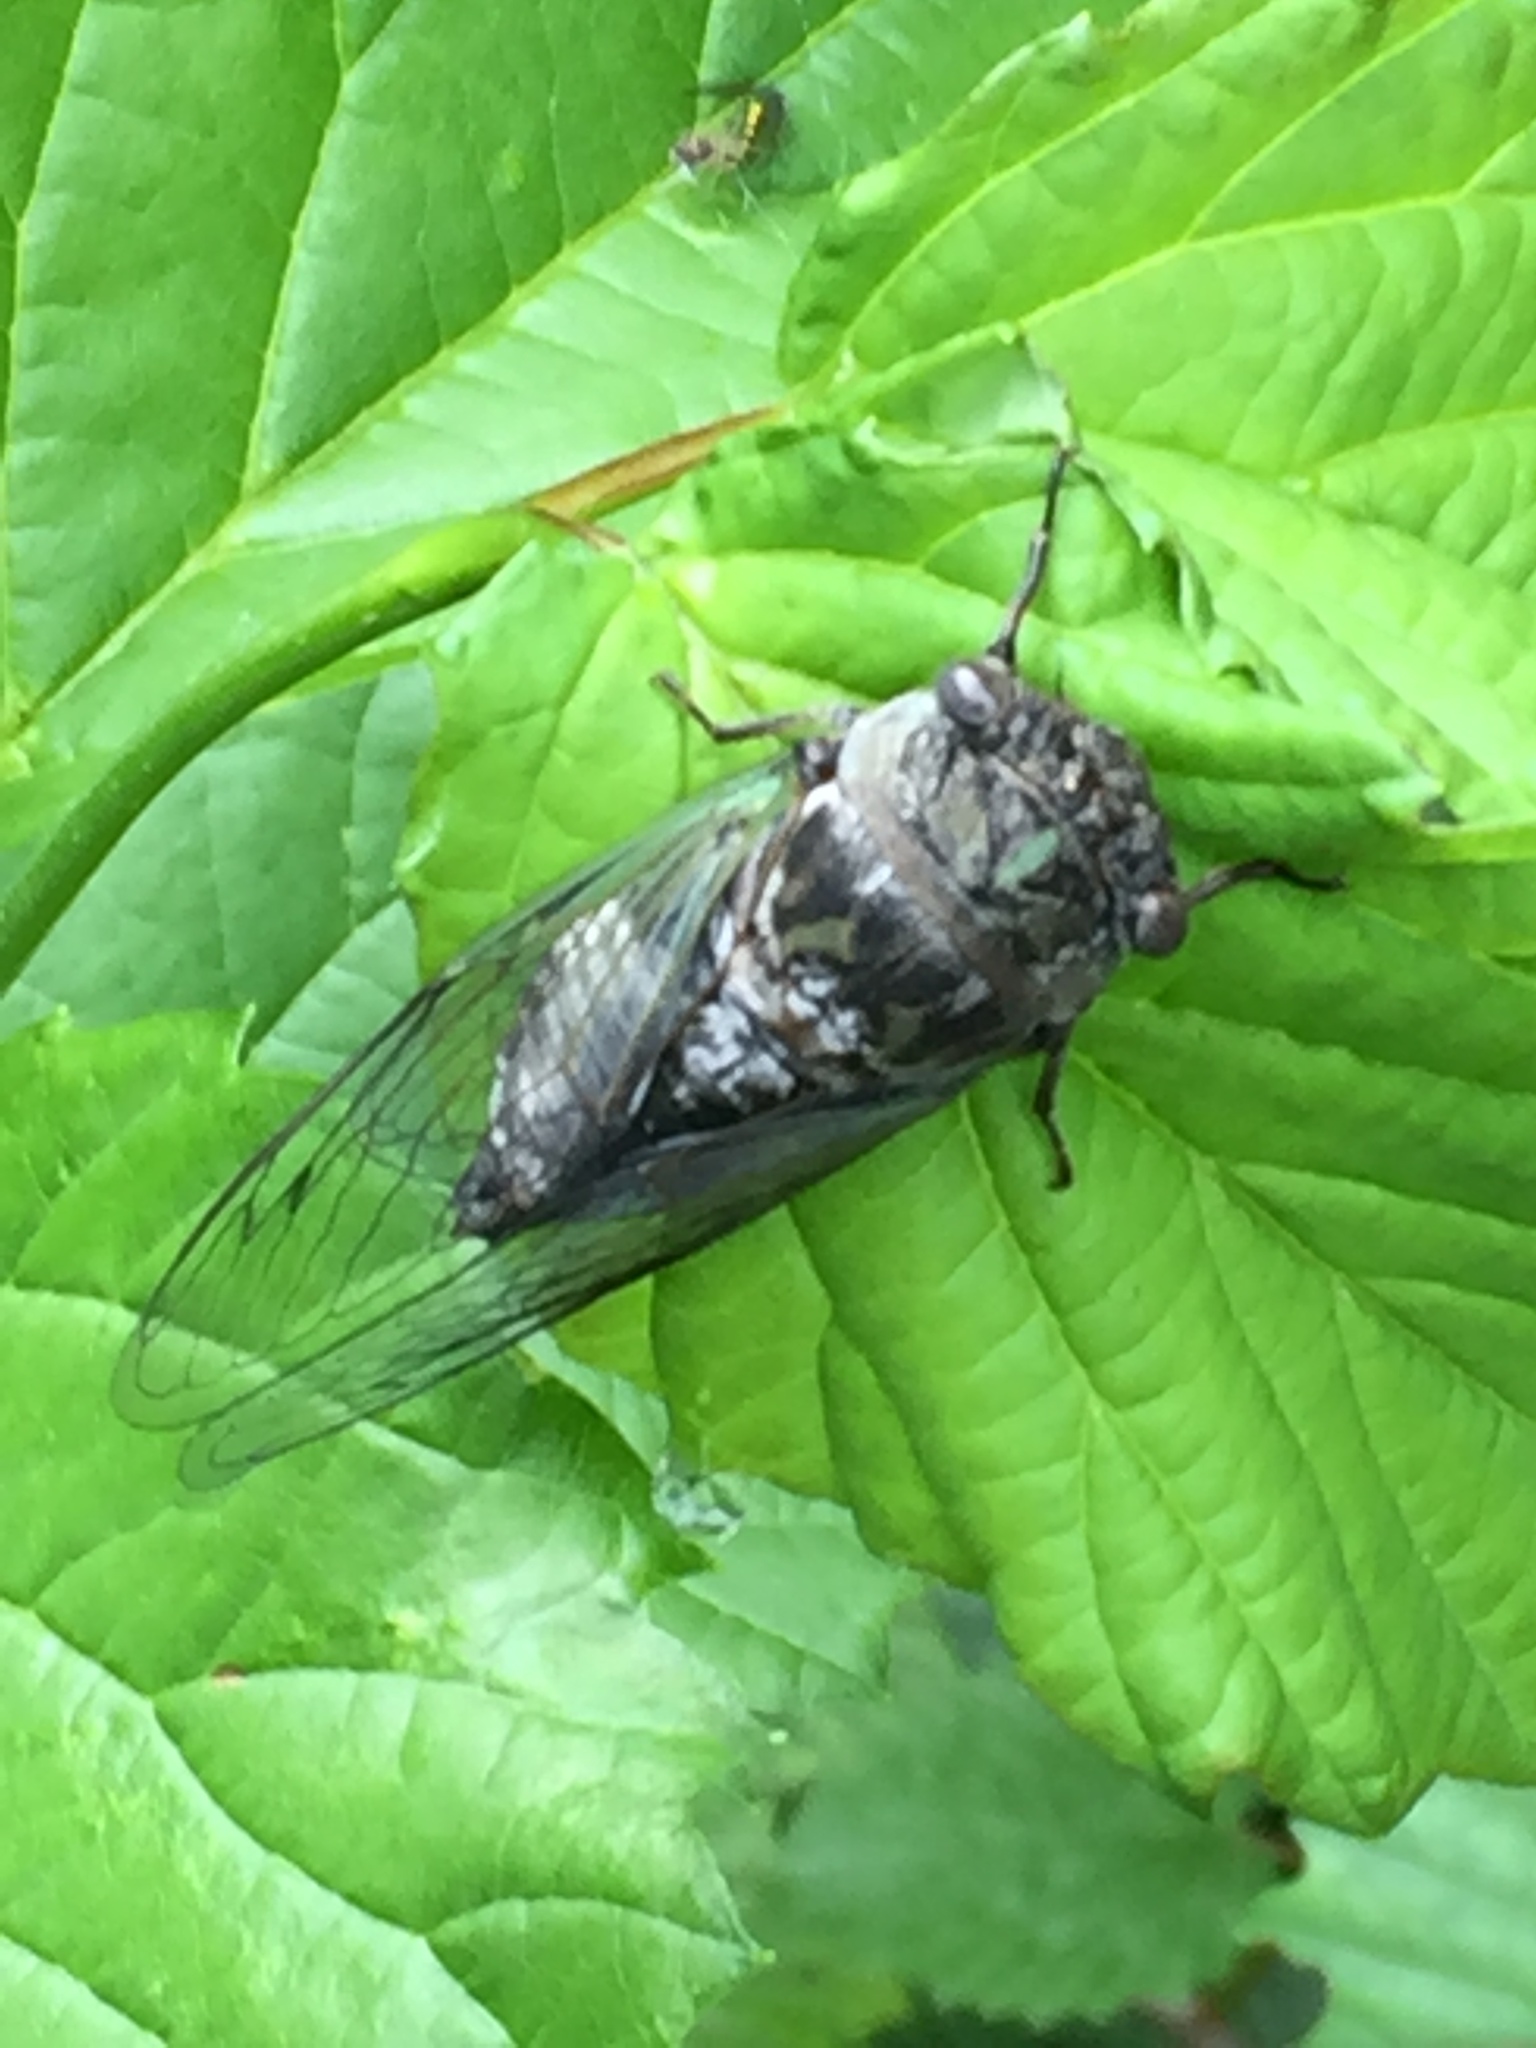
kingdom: Animalia
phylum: Arthropoda
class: Insecta
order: Hemiptera
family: Cicadidae
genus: Neotibicen
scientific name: Neotibicen canicularis
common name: God-day cicada
